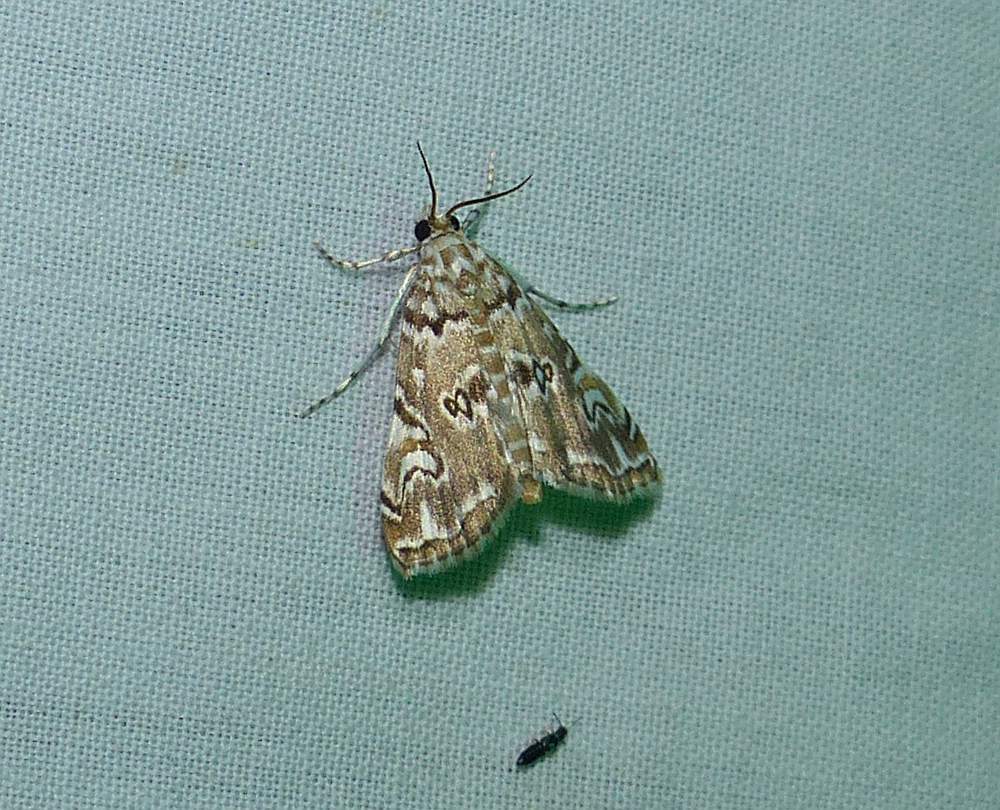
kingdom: Animalia
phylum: Arthropoda
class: Insecta
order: Lepidoptera
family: Crambidae
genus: Elophila
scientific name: Elophila gyralis
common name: Waterlily borer moth
